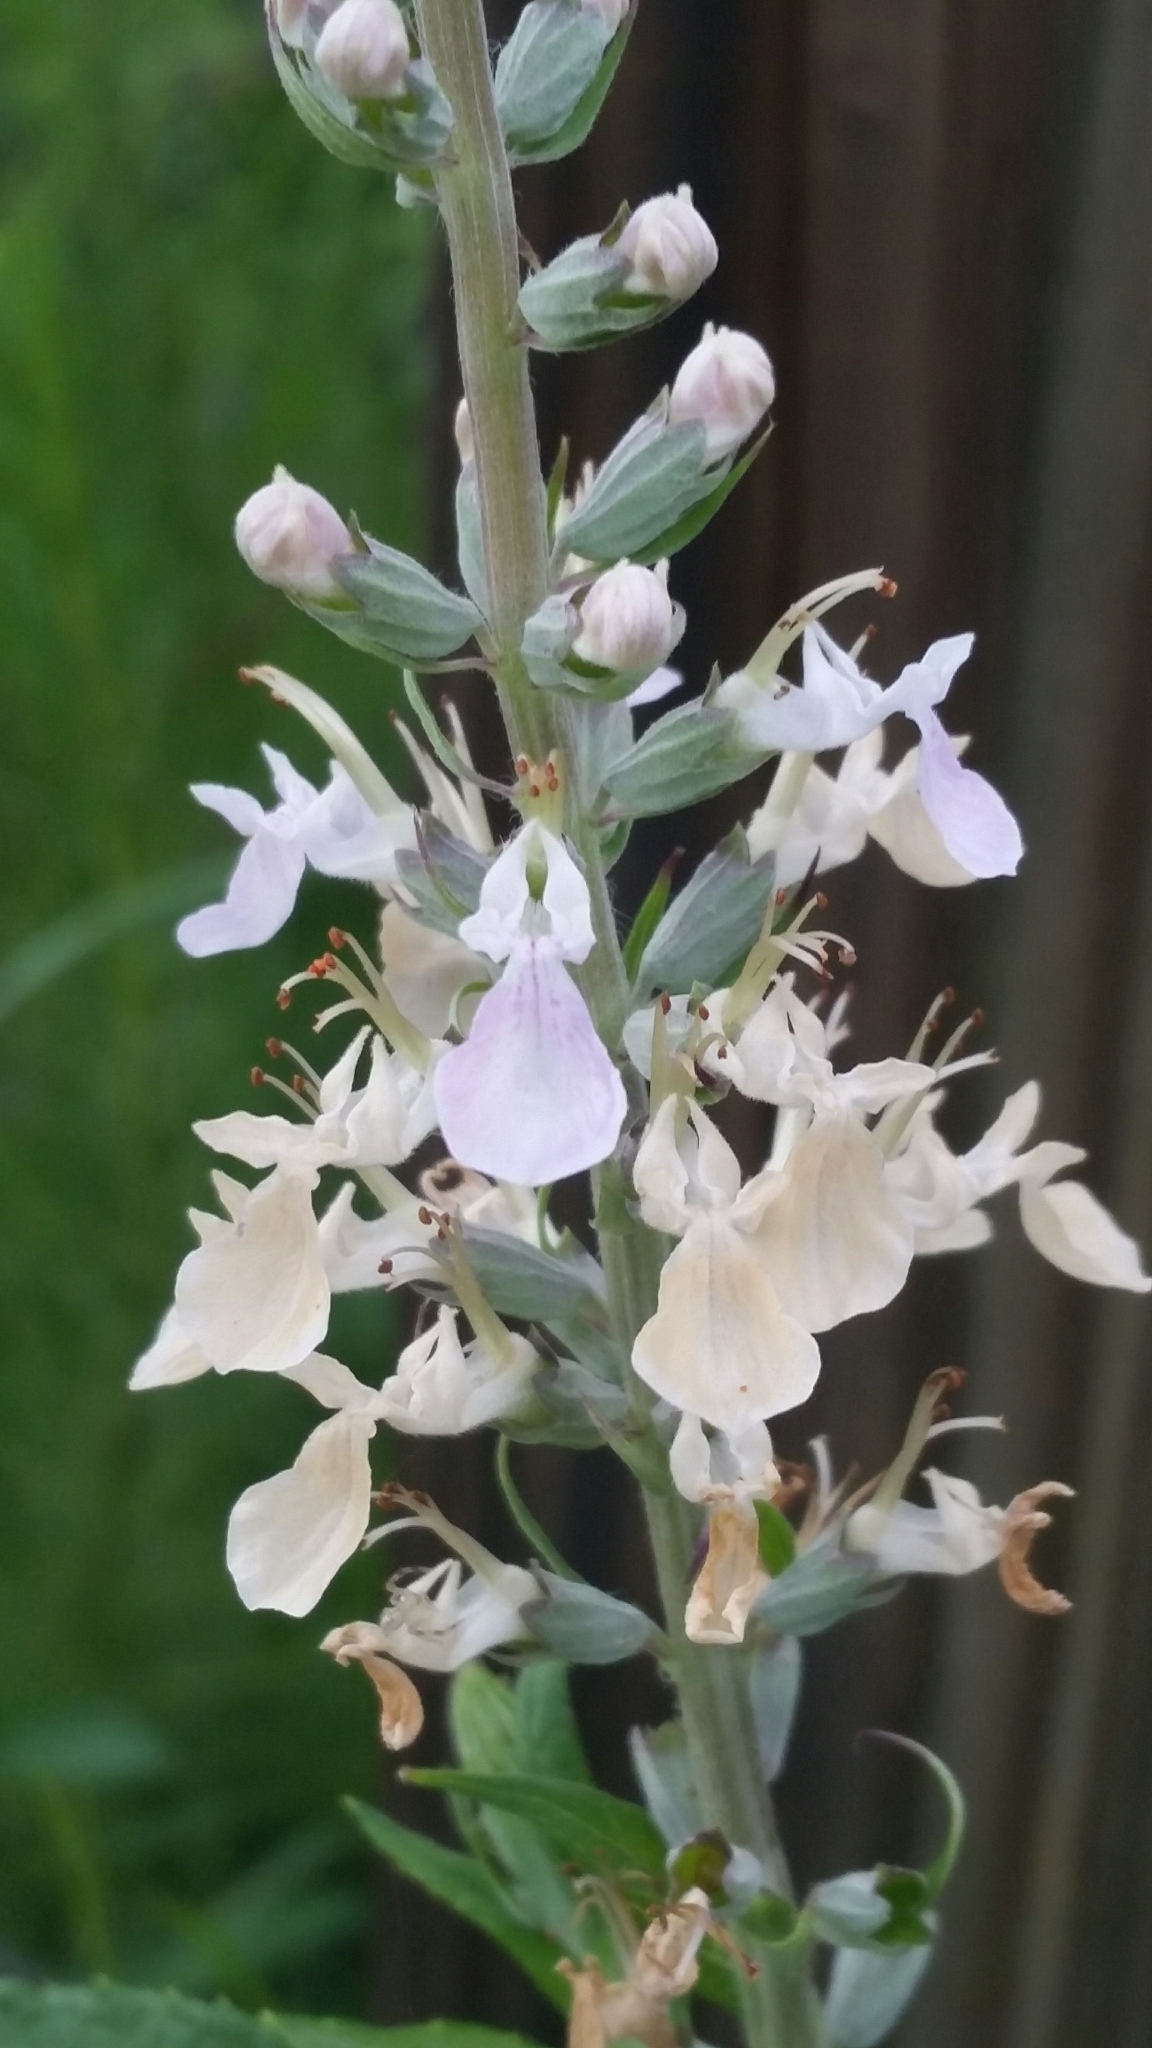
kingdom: Plantae
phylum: Tracheophyta
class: Magnoliopsida
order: Lamiales
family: Lamiaceae
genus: Teucrium
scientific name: Teucrium canadense
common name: American germander
